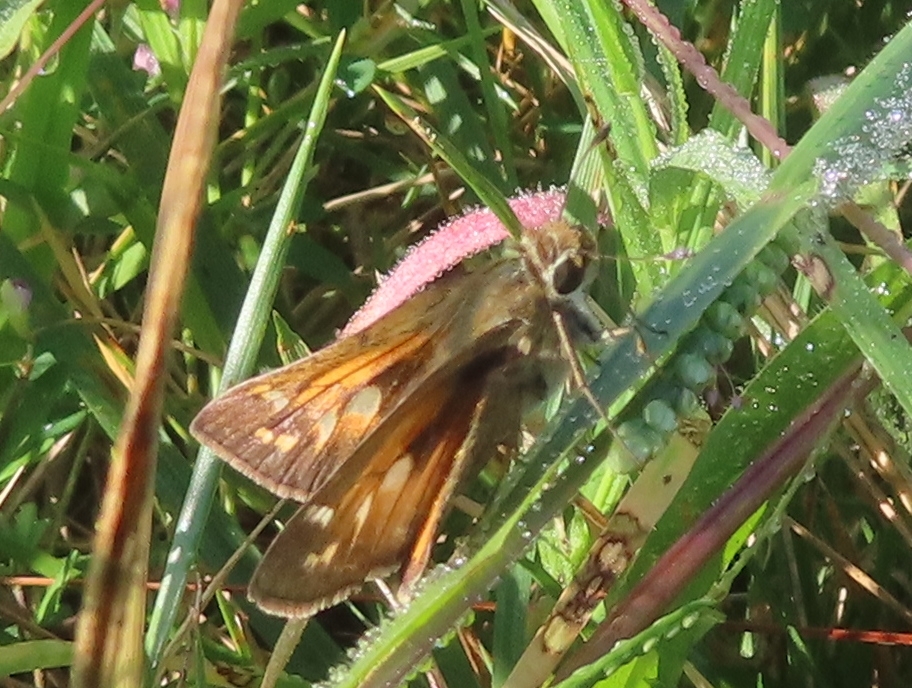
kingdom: Animalia
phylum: Arthropoda
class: Insecta
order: Lepidoptera
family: Hesperiidae
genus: Atalopedes
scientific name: Atalopedes
